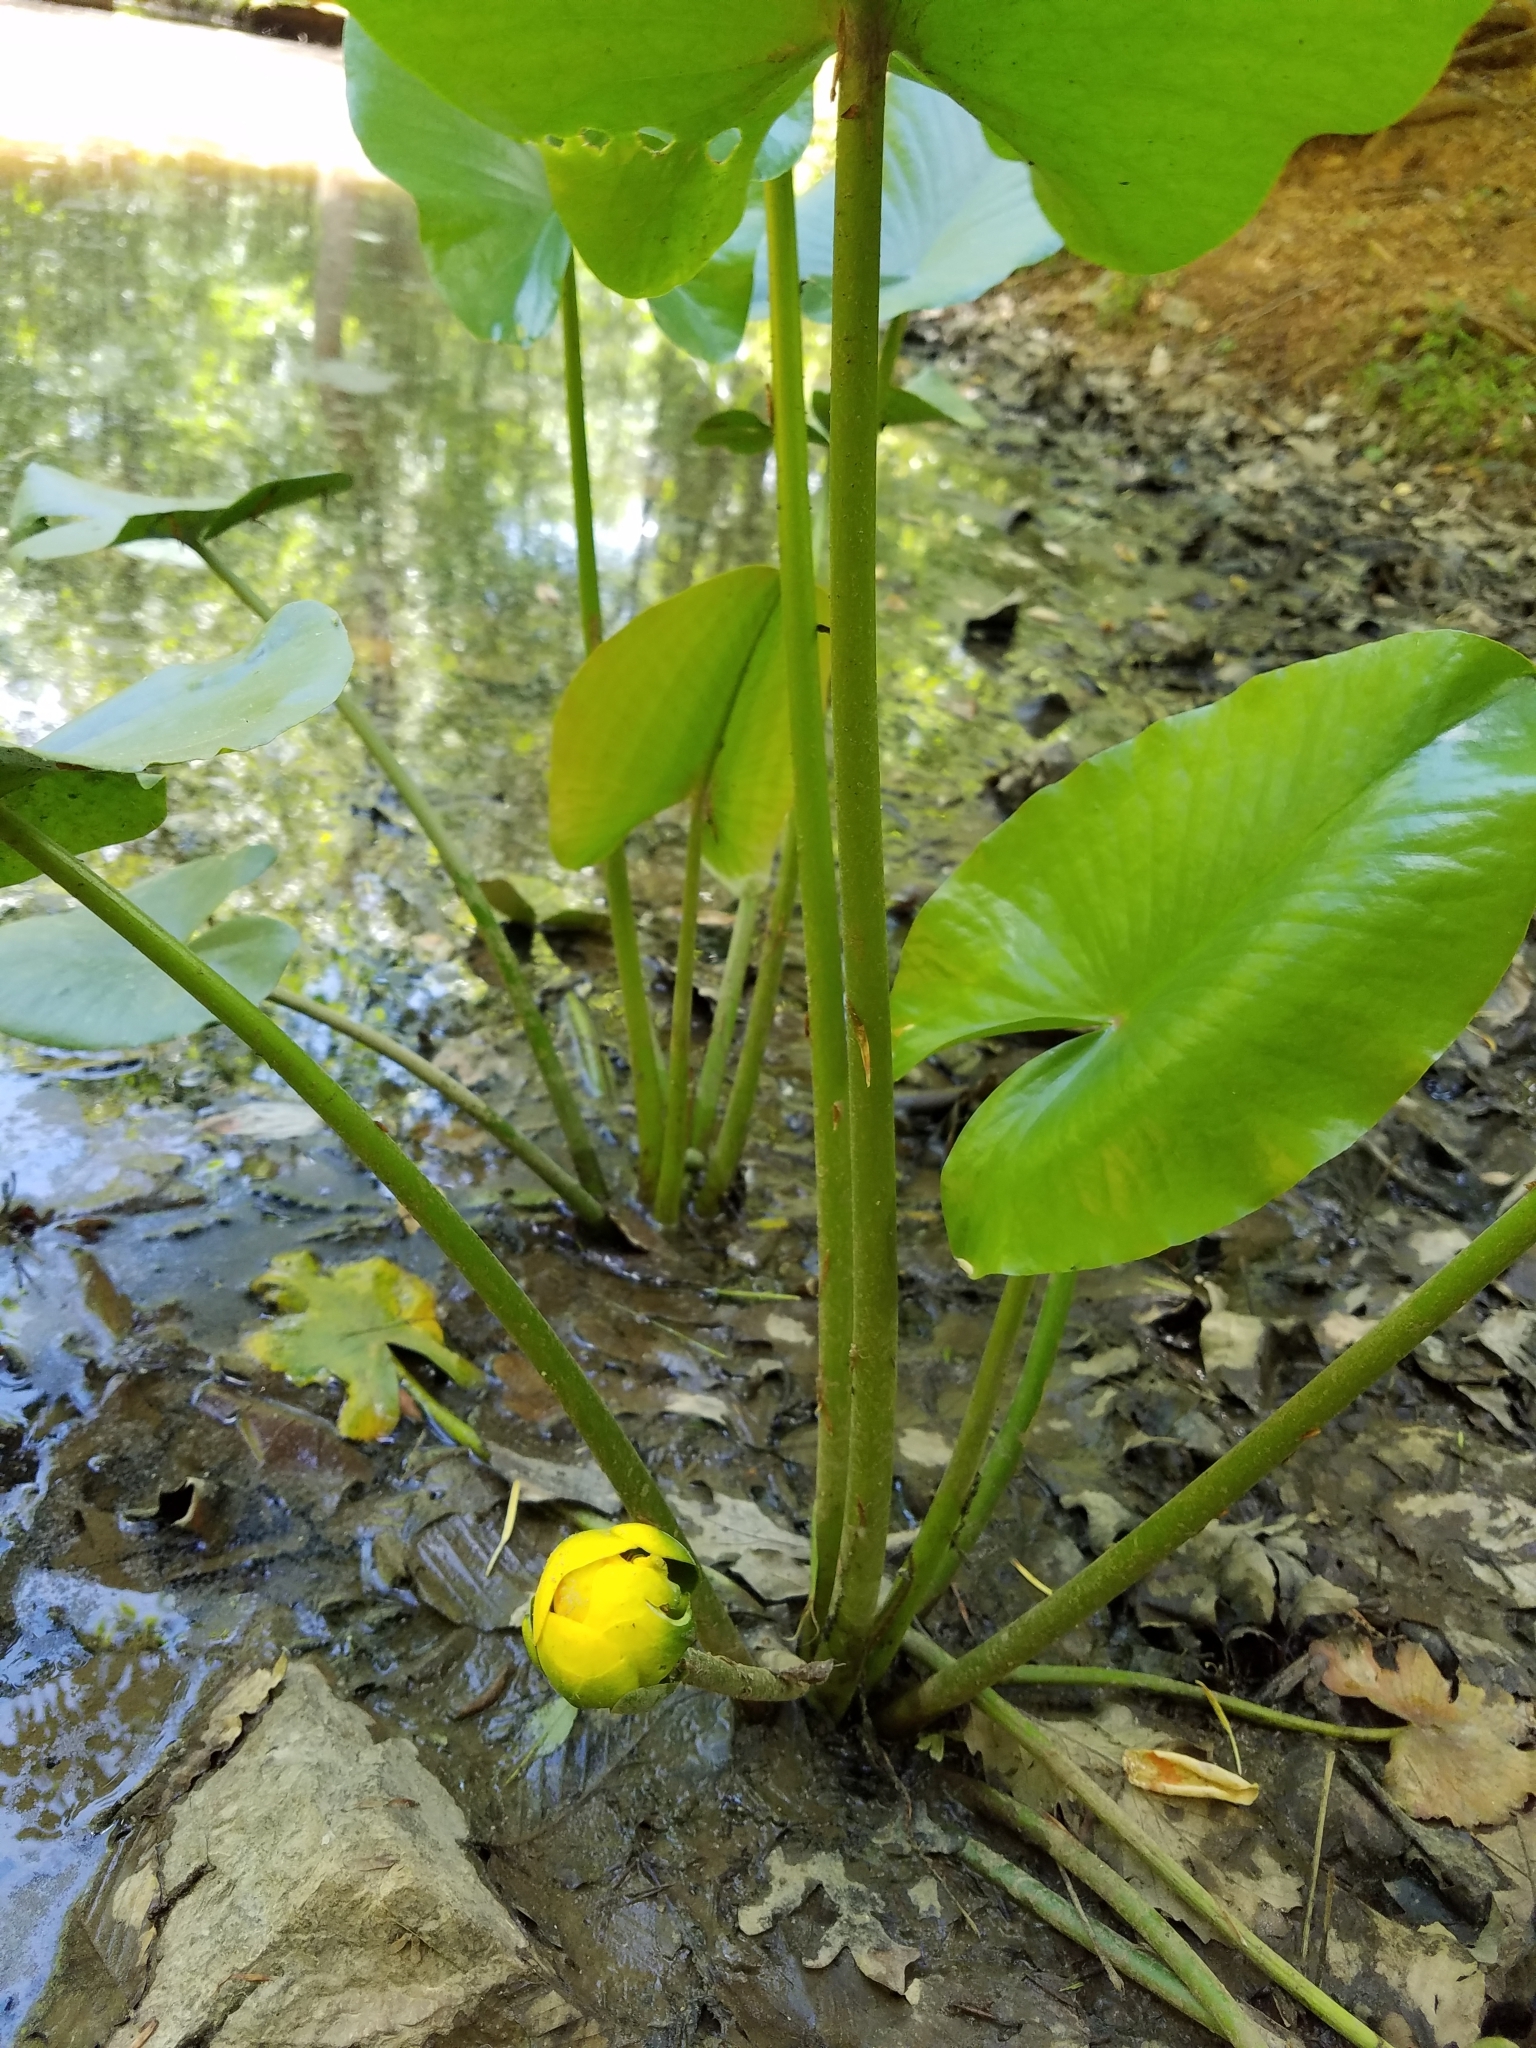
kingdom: Plantae
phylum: Tracheophyta
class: Magnoliopsida
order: Nymphaeales
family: Nymphaeaceae
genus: Nuphar
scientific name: Nuphar advena
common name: Spatter-dock
